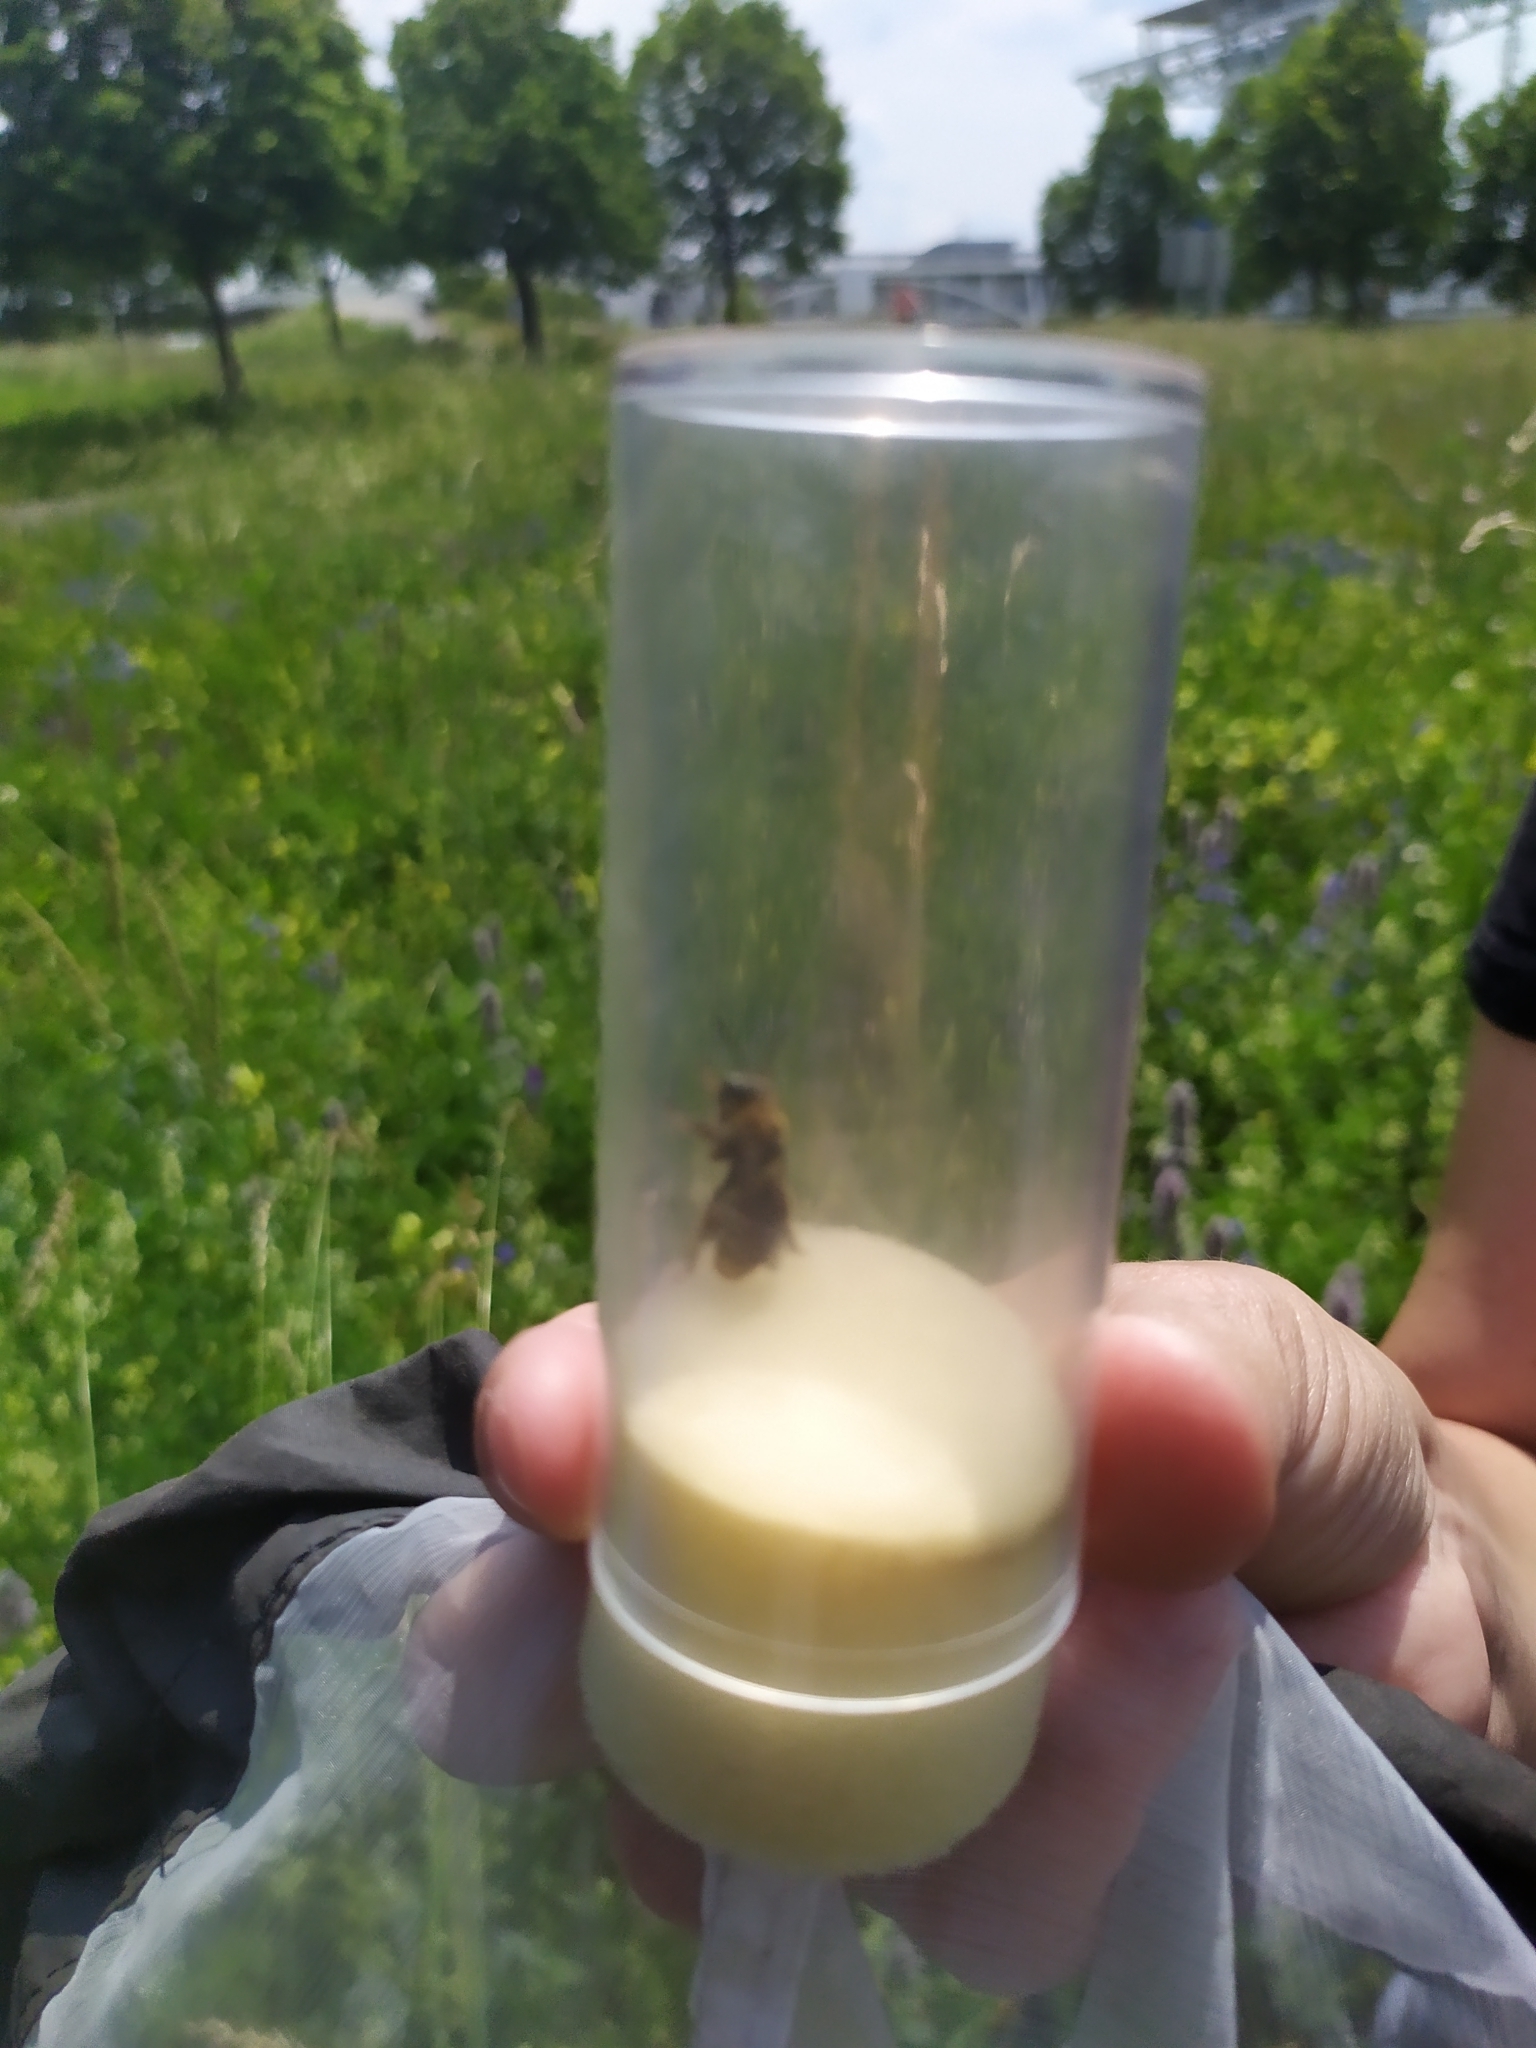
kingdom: Animalia
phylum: Arthropoda
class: Insecta
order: Hymenoptera
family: Apidae
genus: Eucera
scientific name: Eucera chrysopyga
